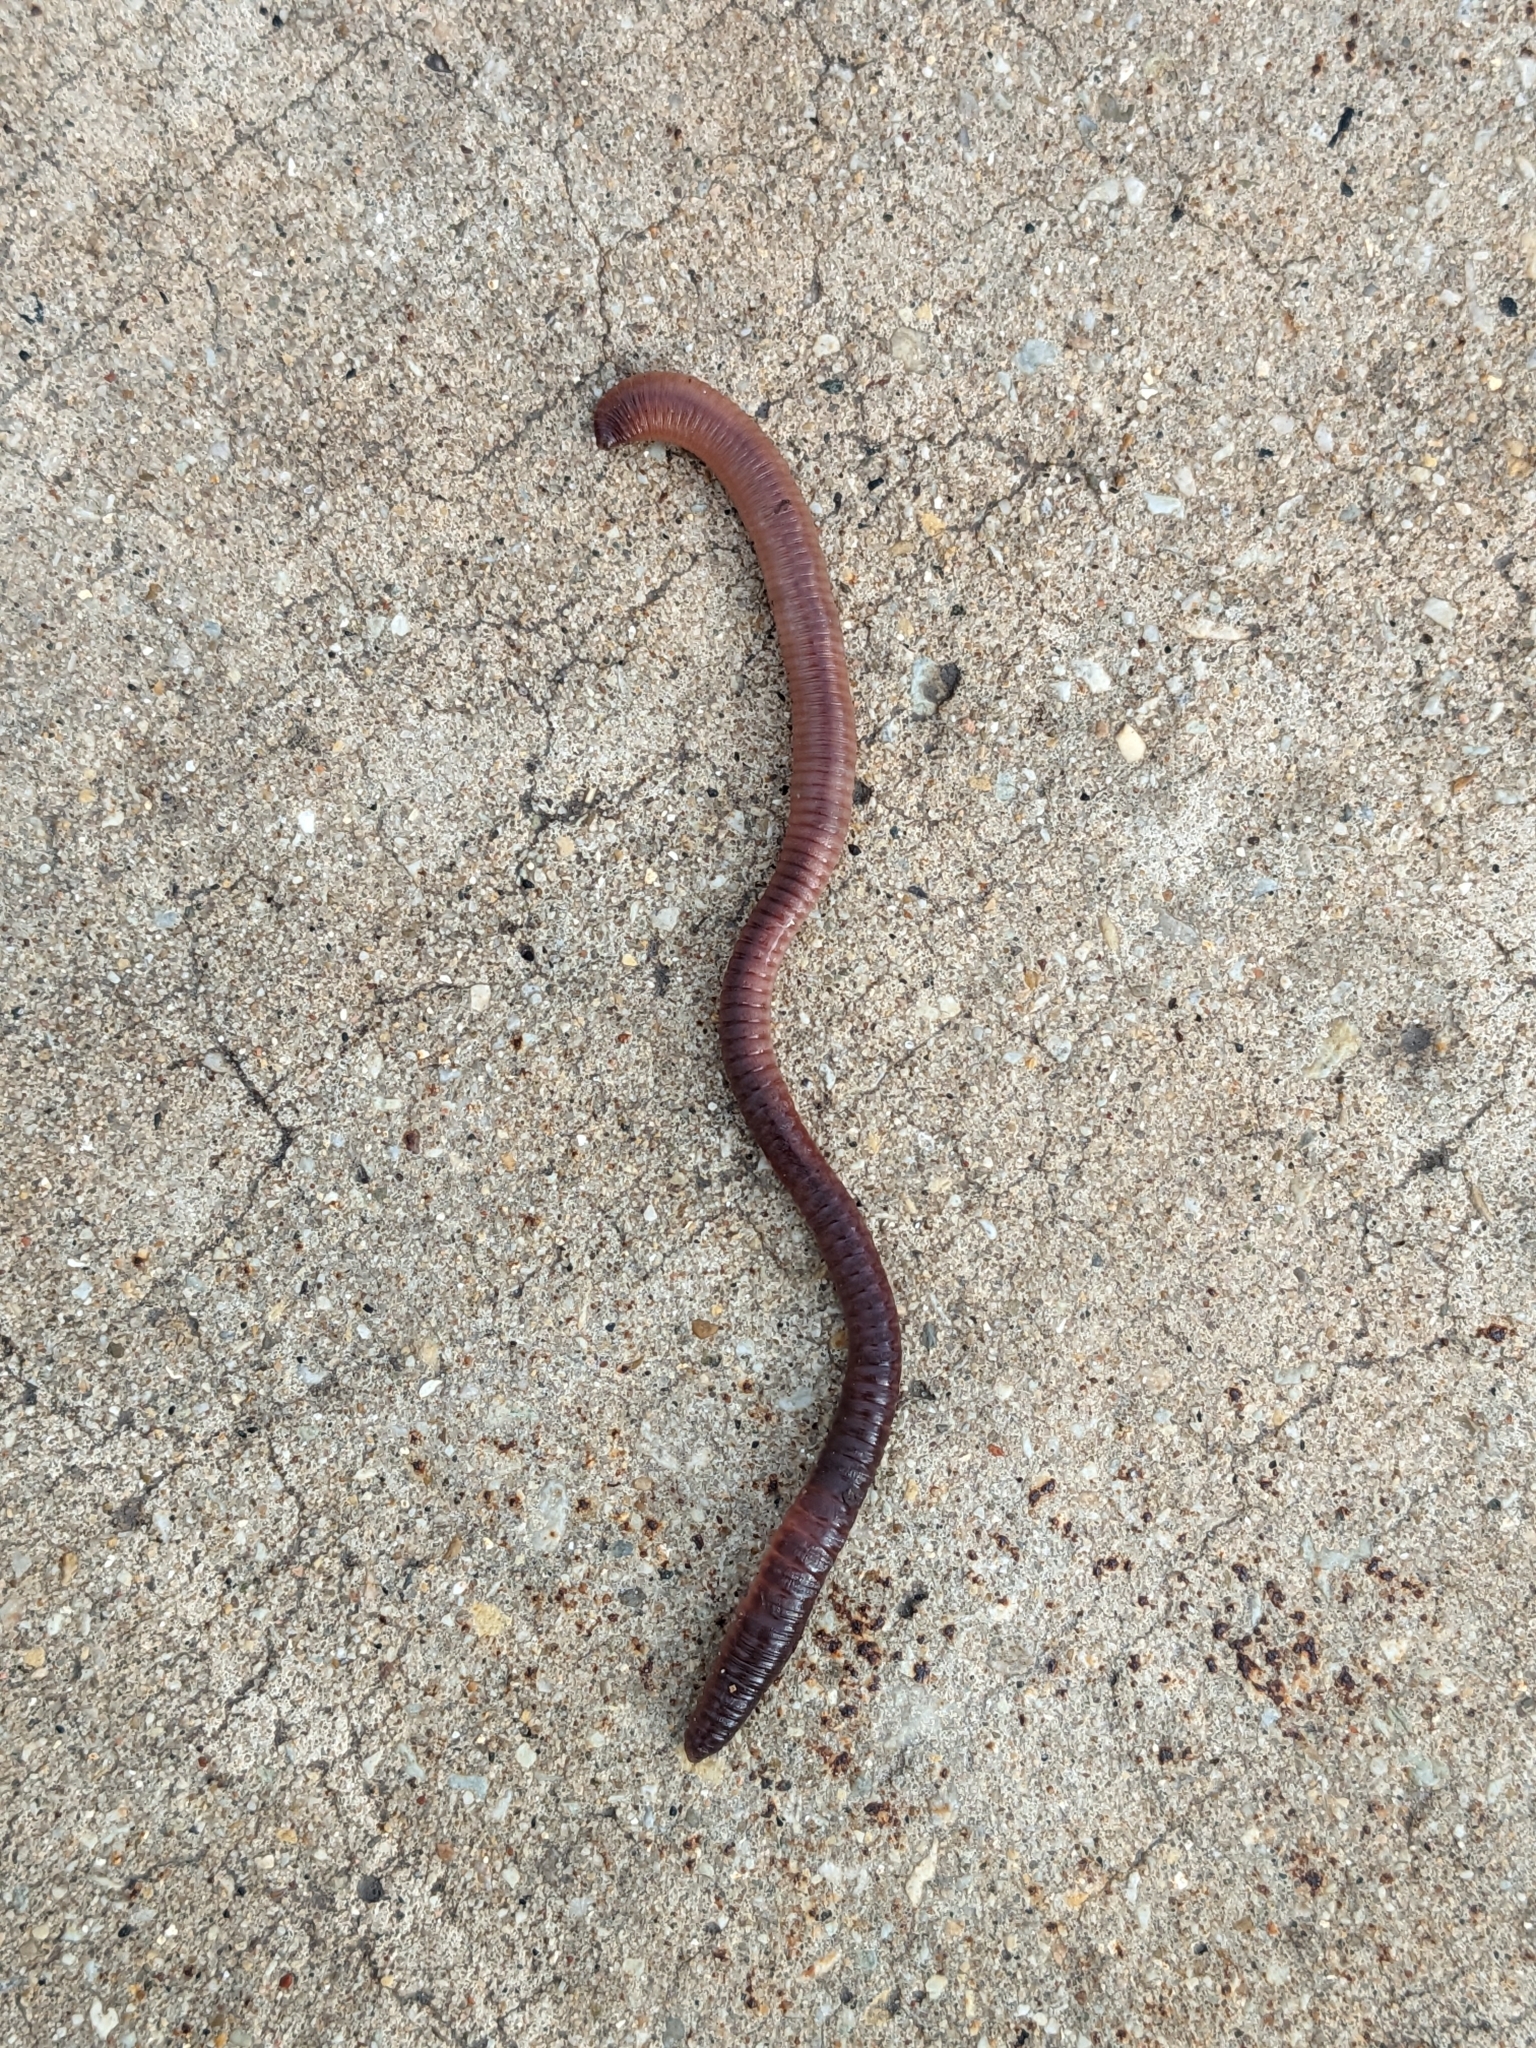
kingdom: Animalia
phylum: Annelida
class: Clitellata
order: Crassiclitellata
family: Lumbricidae
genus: Lumbricus
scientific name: Lumbricus terrestris
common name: Common earthworm
